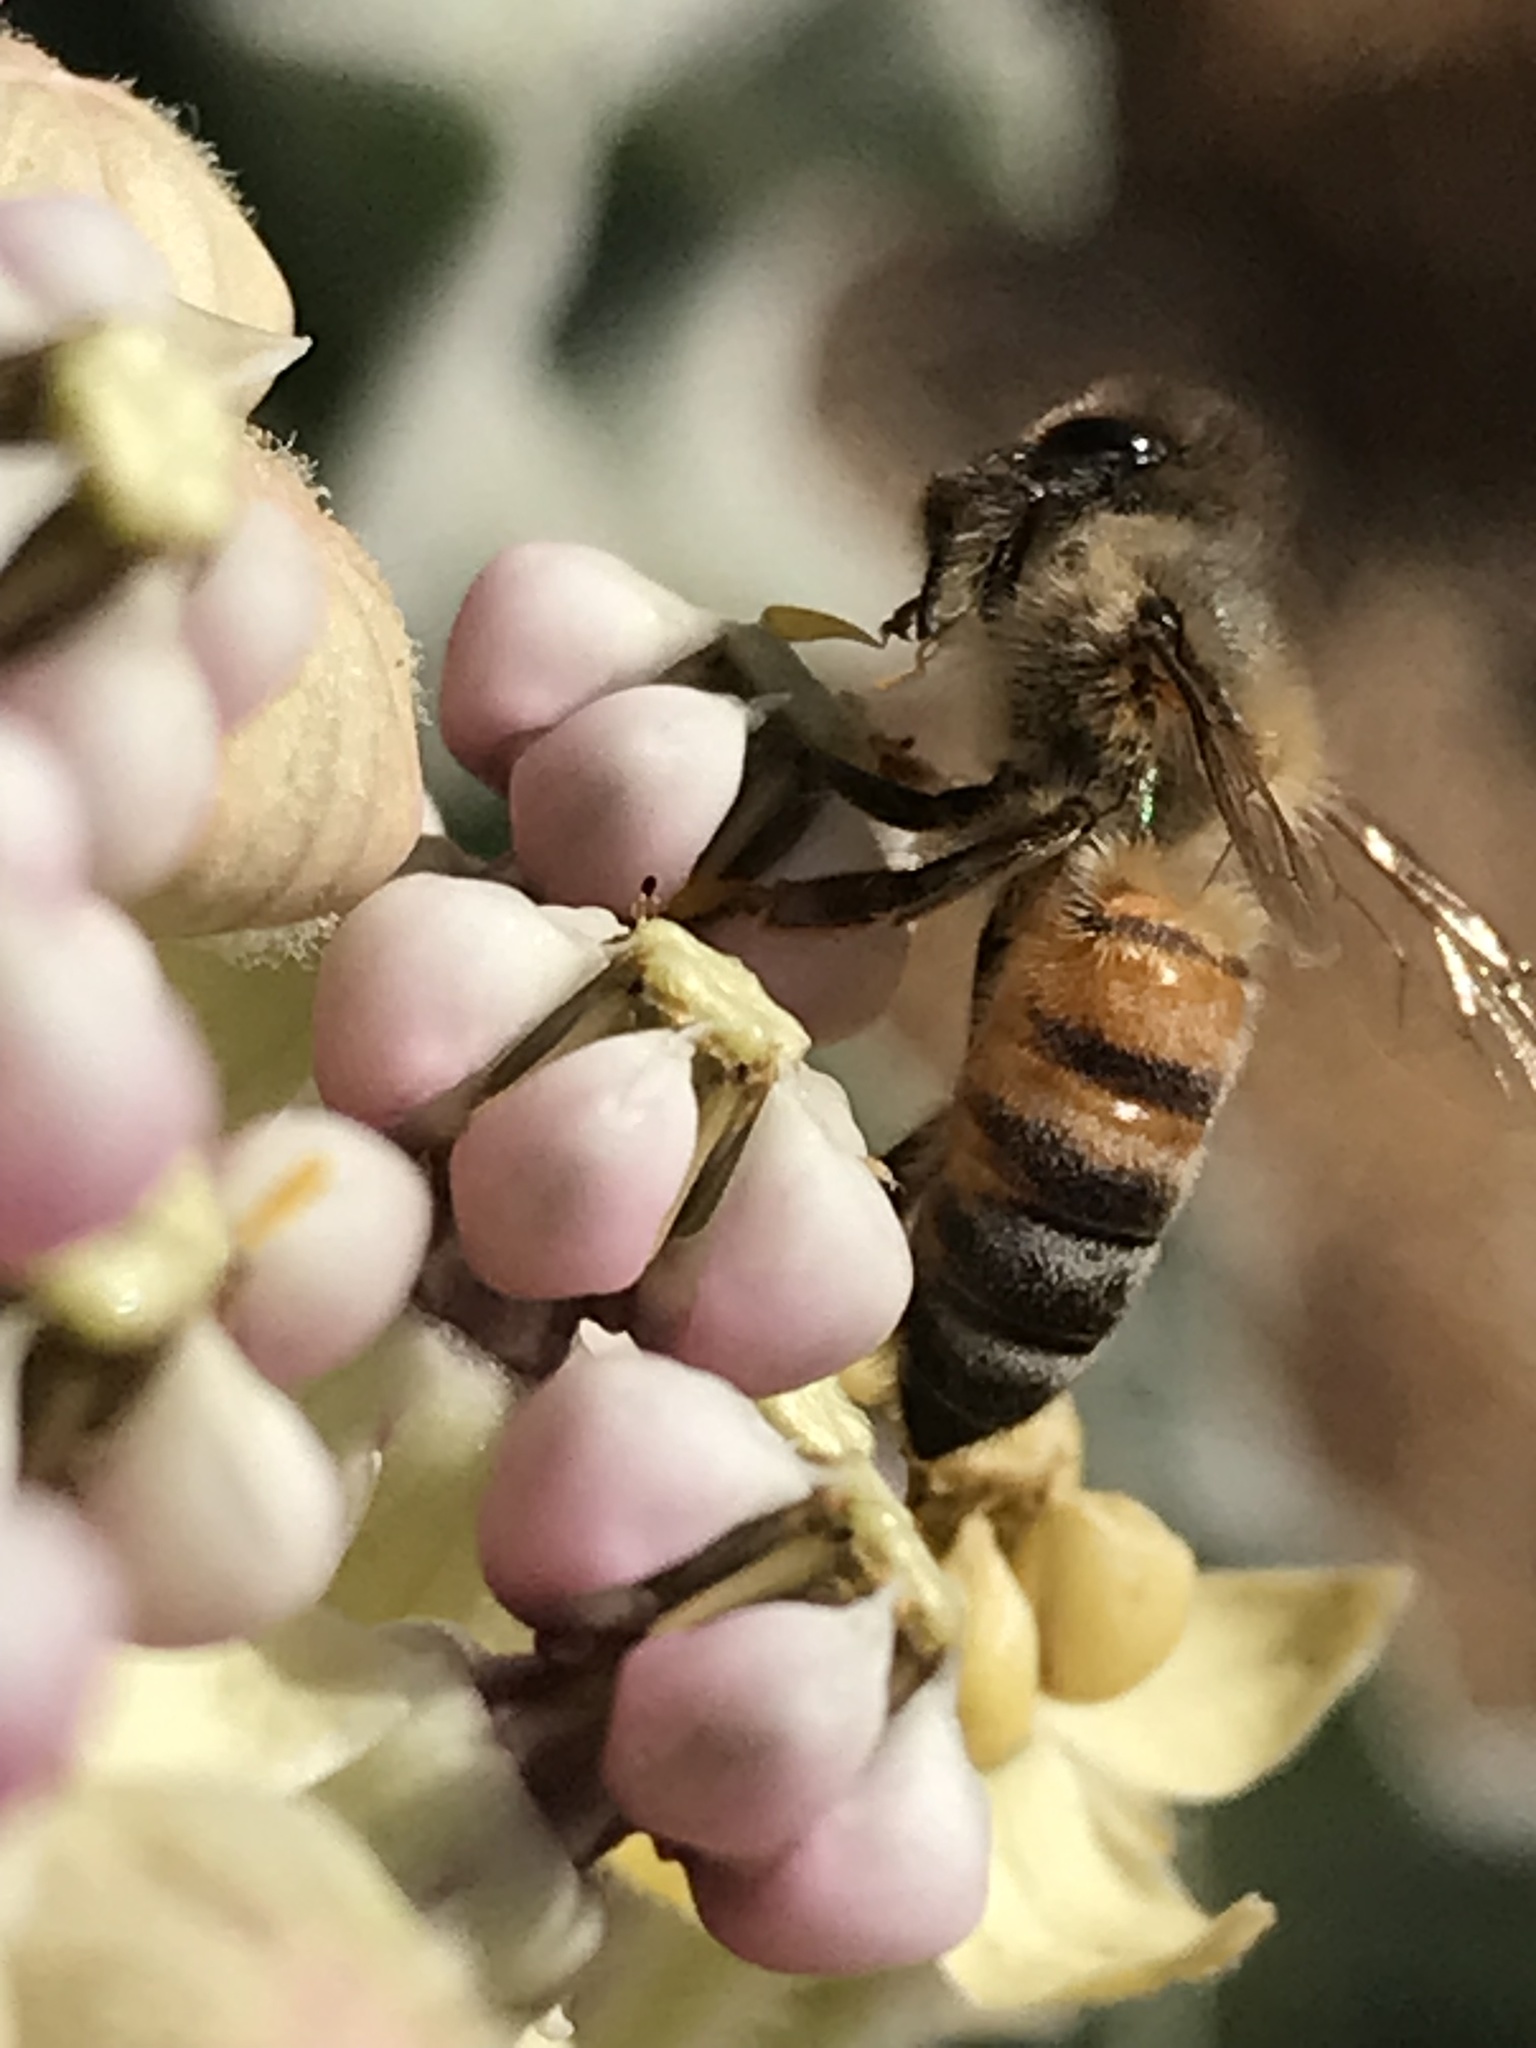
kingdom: Animalia
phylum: Arthropoda
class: Insecta
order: Hymenoptera
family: Apidae
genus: Apis
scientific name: Apis mellifera
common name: Honey bee
